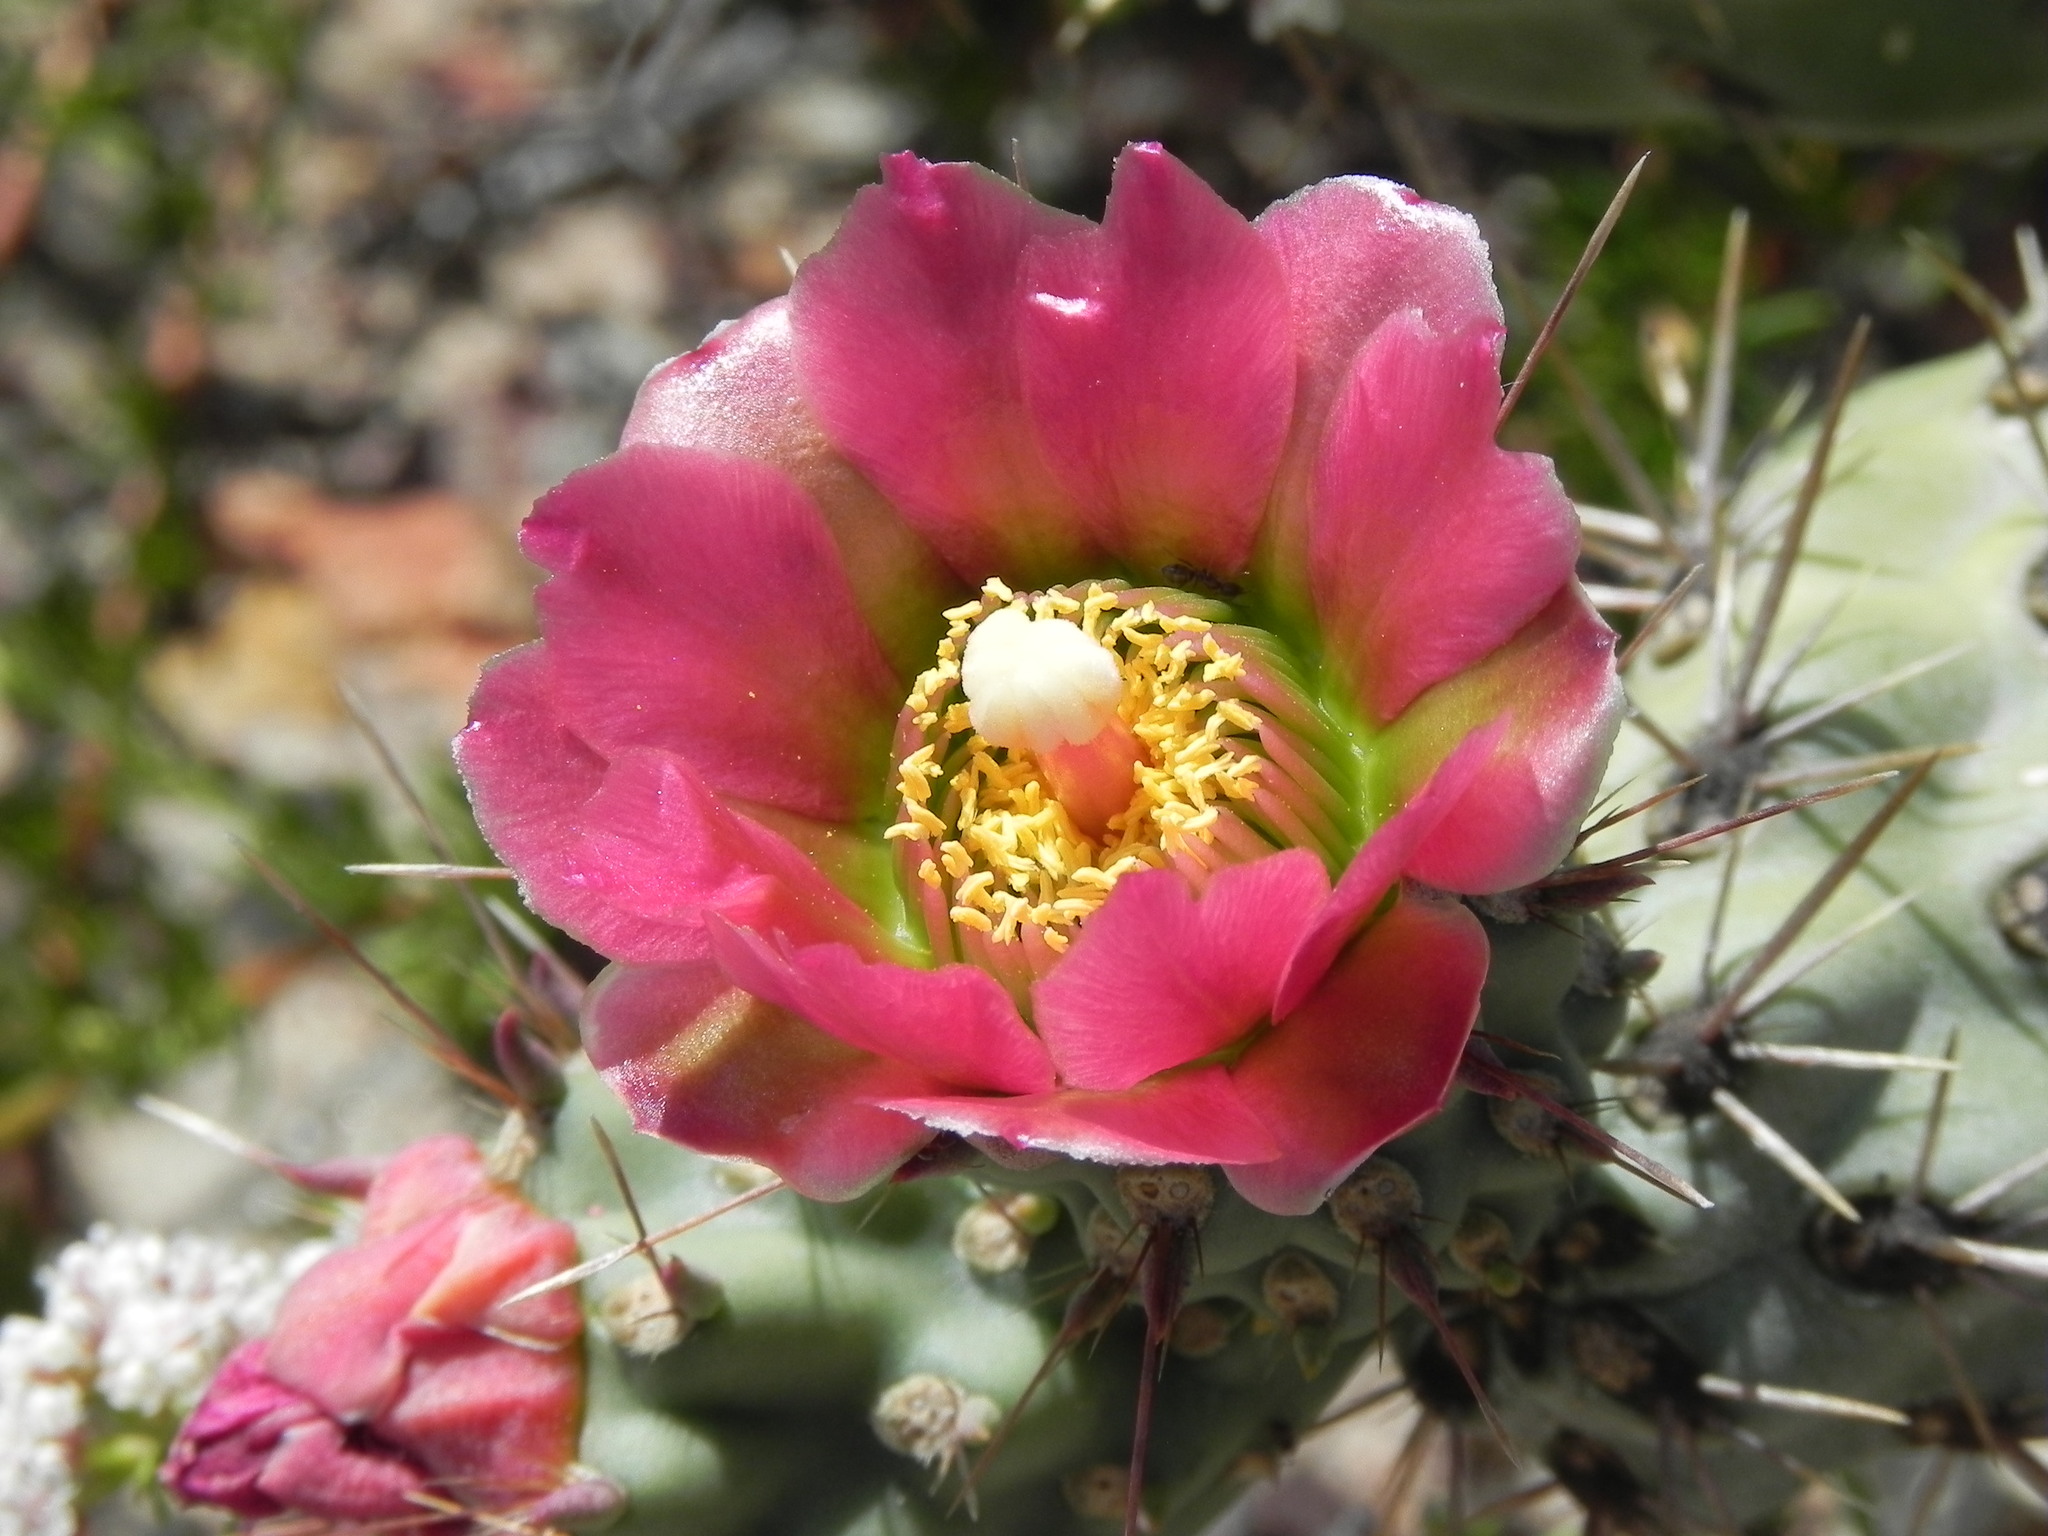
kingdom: Plantae
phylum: Tracheophyta
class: Magnoliopsida
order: Caryophyllales
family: Cactaceae
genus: Cylindropuntia
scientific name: Cylindropuntia prolifera
